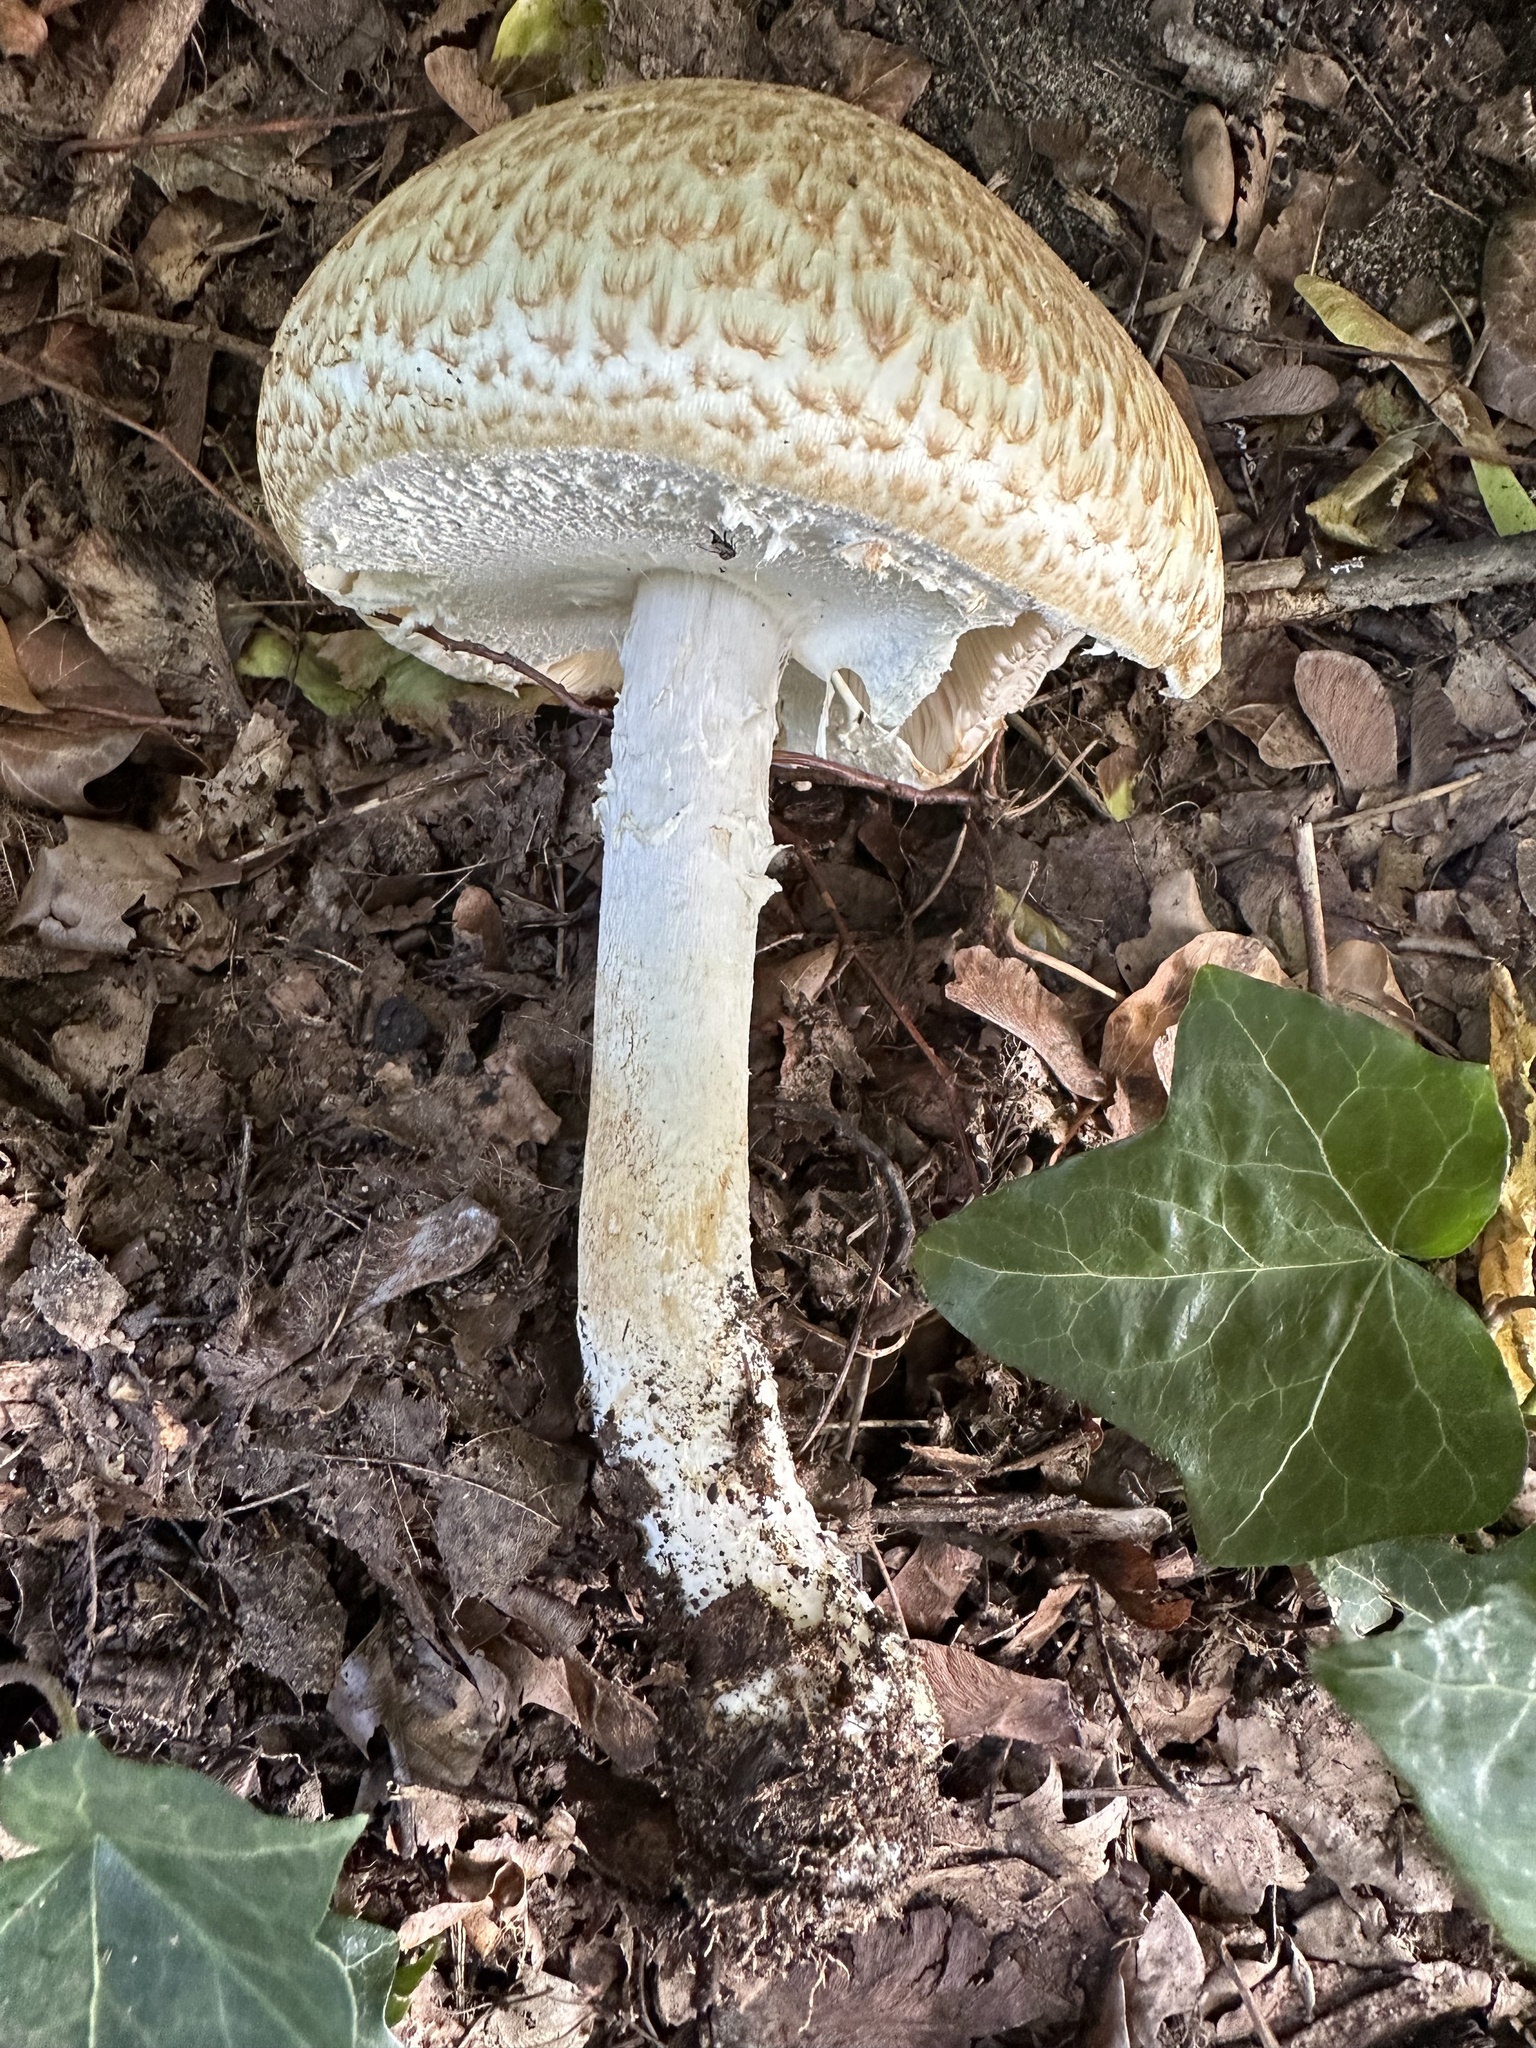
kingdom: Fungi
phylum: Basidiomycota
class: Agaricomycetes
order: Agaricales
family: Agaricaceae
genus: Agaricus
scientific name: Agaricus augustus
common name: Prince
